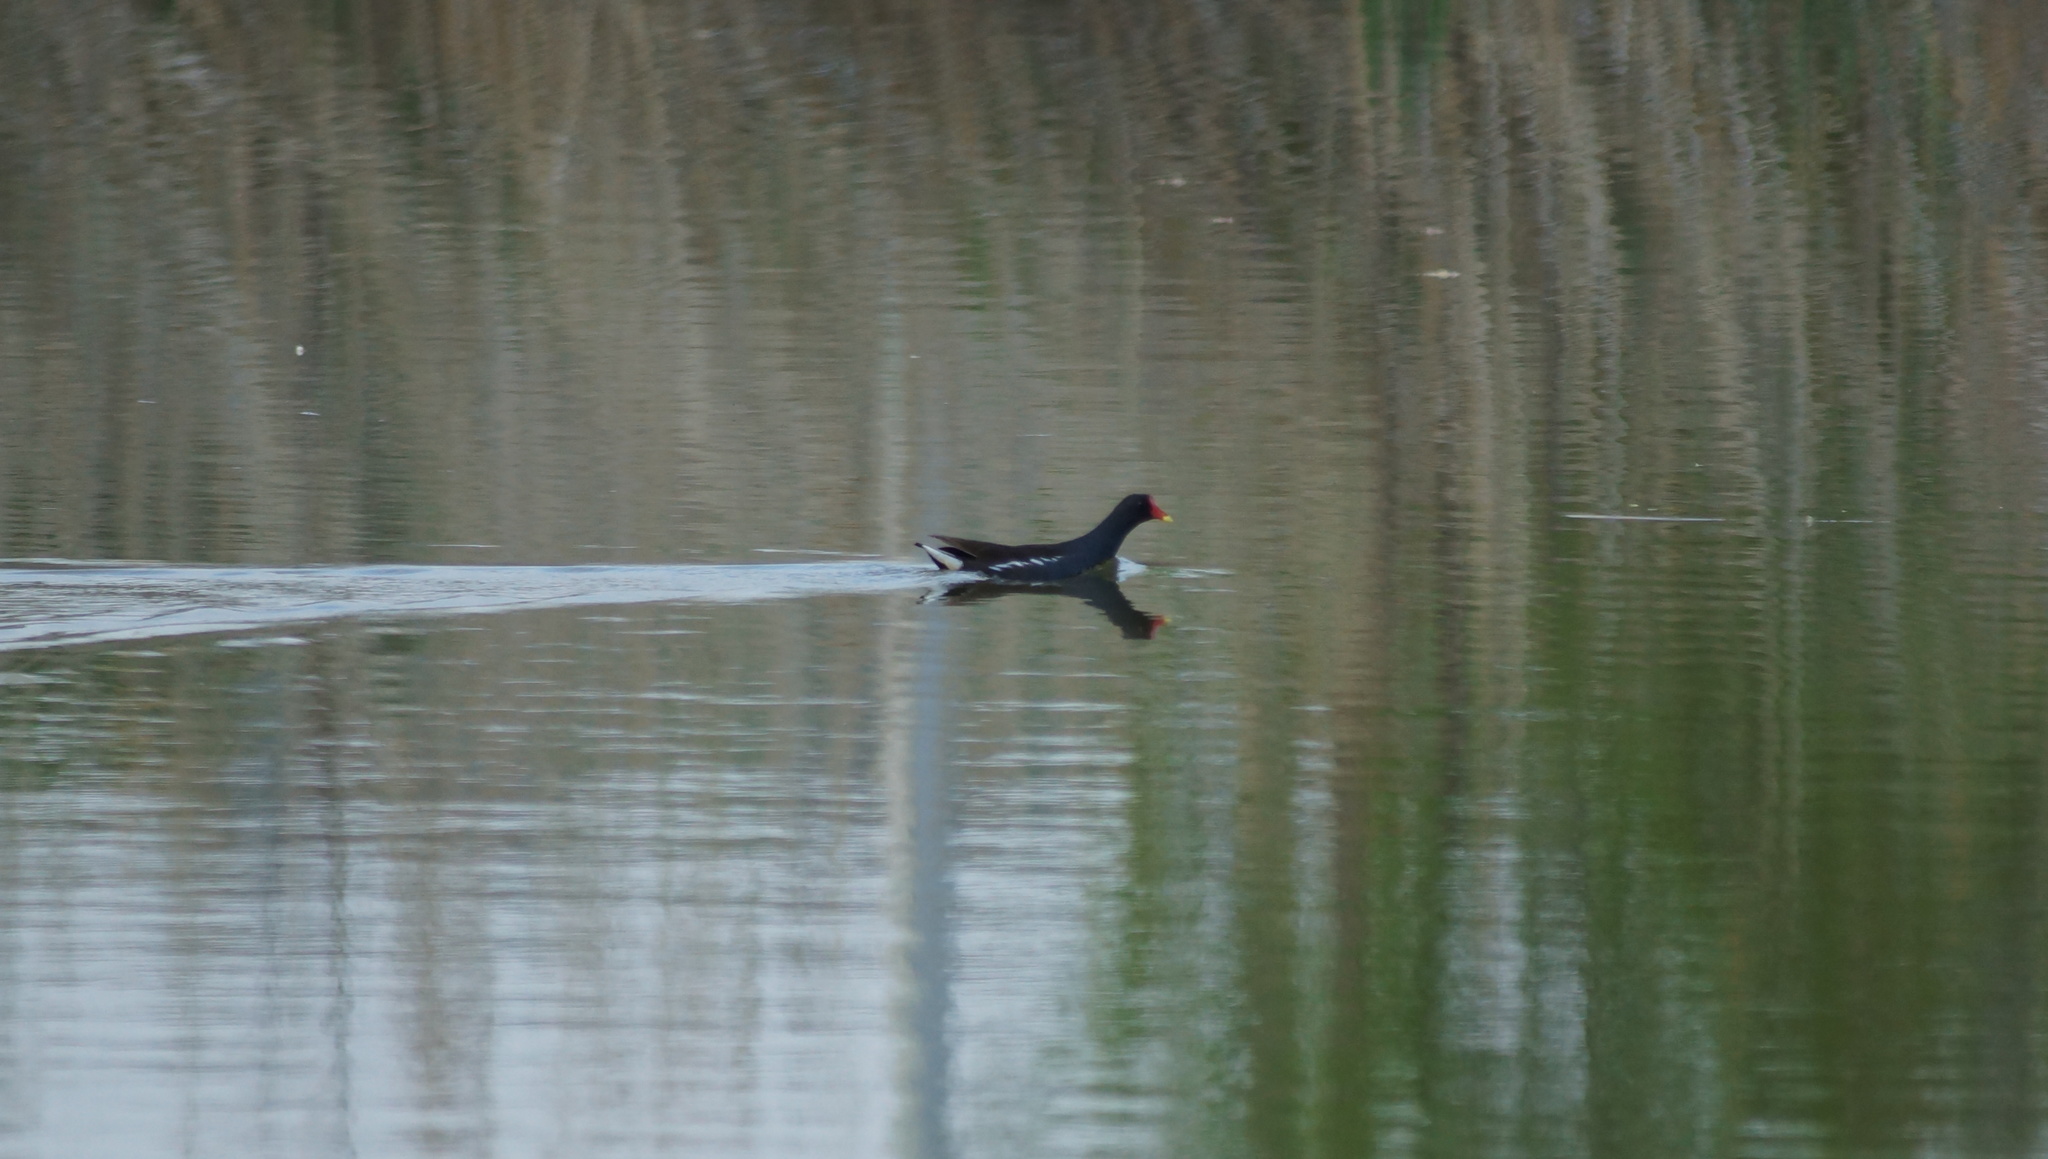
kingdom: Animalia
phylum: Chordata
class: Aves
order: Gruiformes
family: Rallidae
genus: Gallinula
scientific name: Gallinula chloropus
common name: Common moorhen
